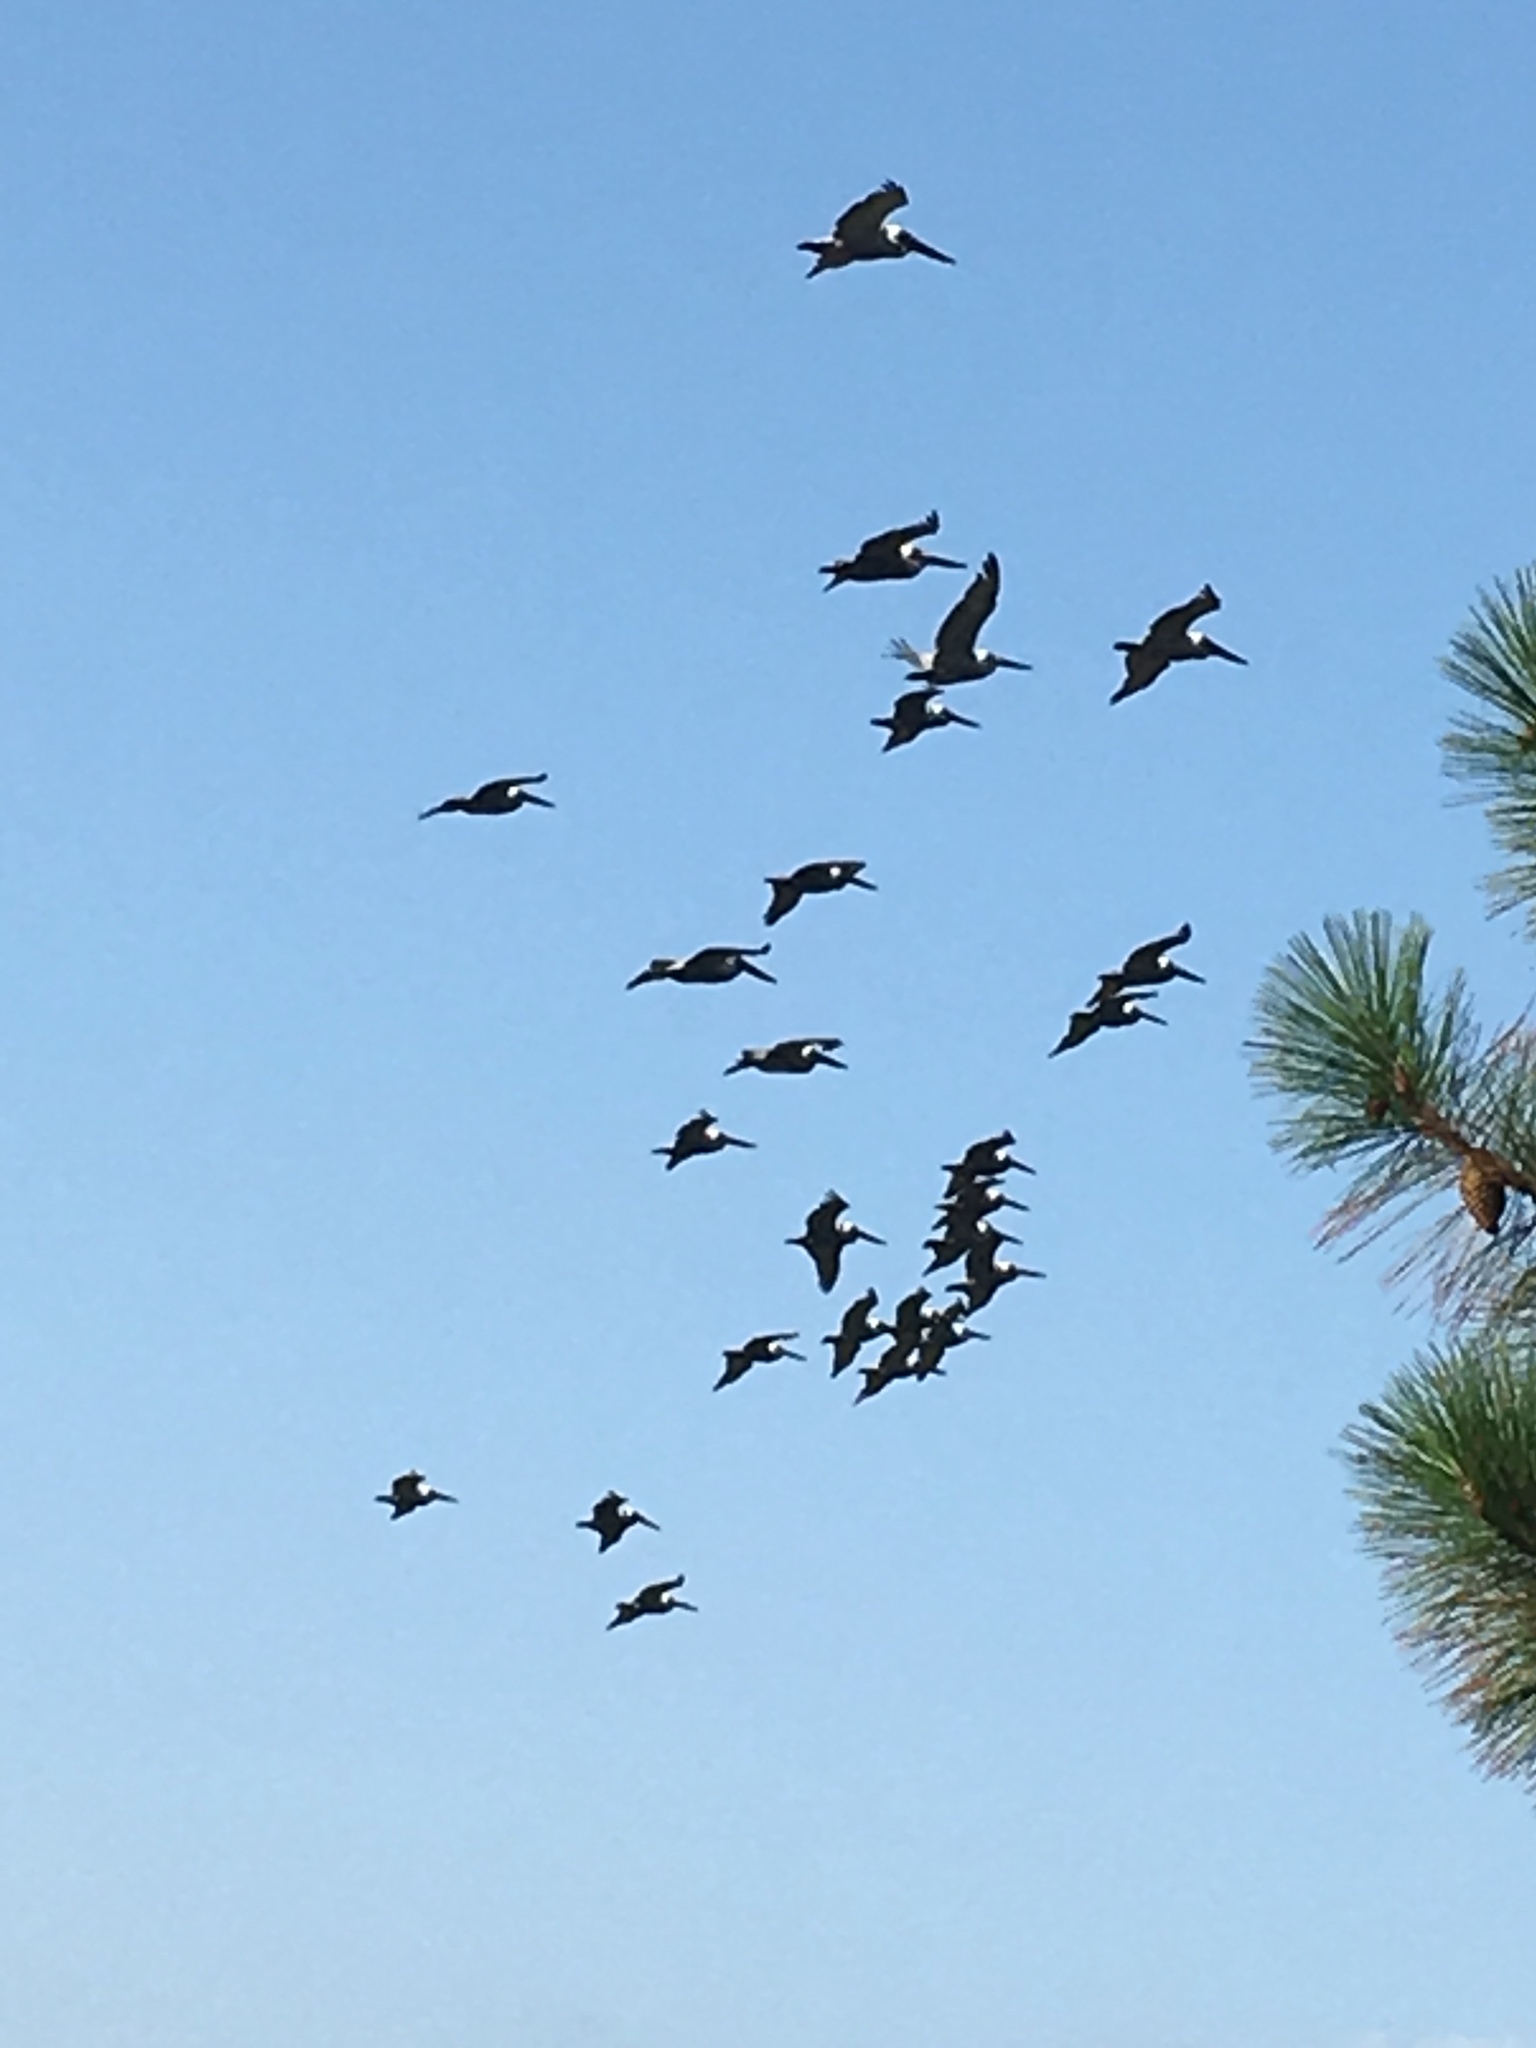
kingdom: Animalia
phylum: Chordata
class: Aves
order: Pelecaniformes
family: Pelecanidae
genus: Pelecanus
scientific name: Pelecanus occidentalis
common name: Brown pelican
